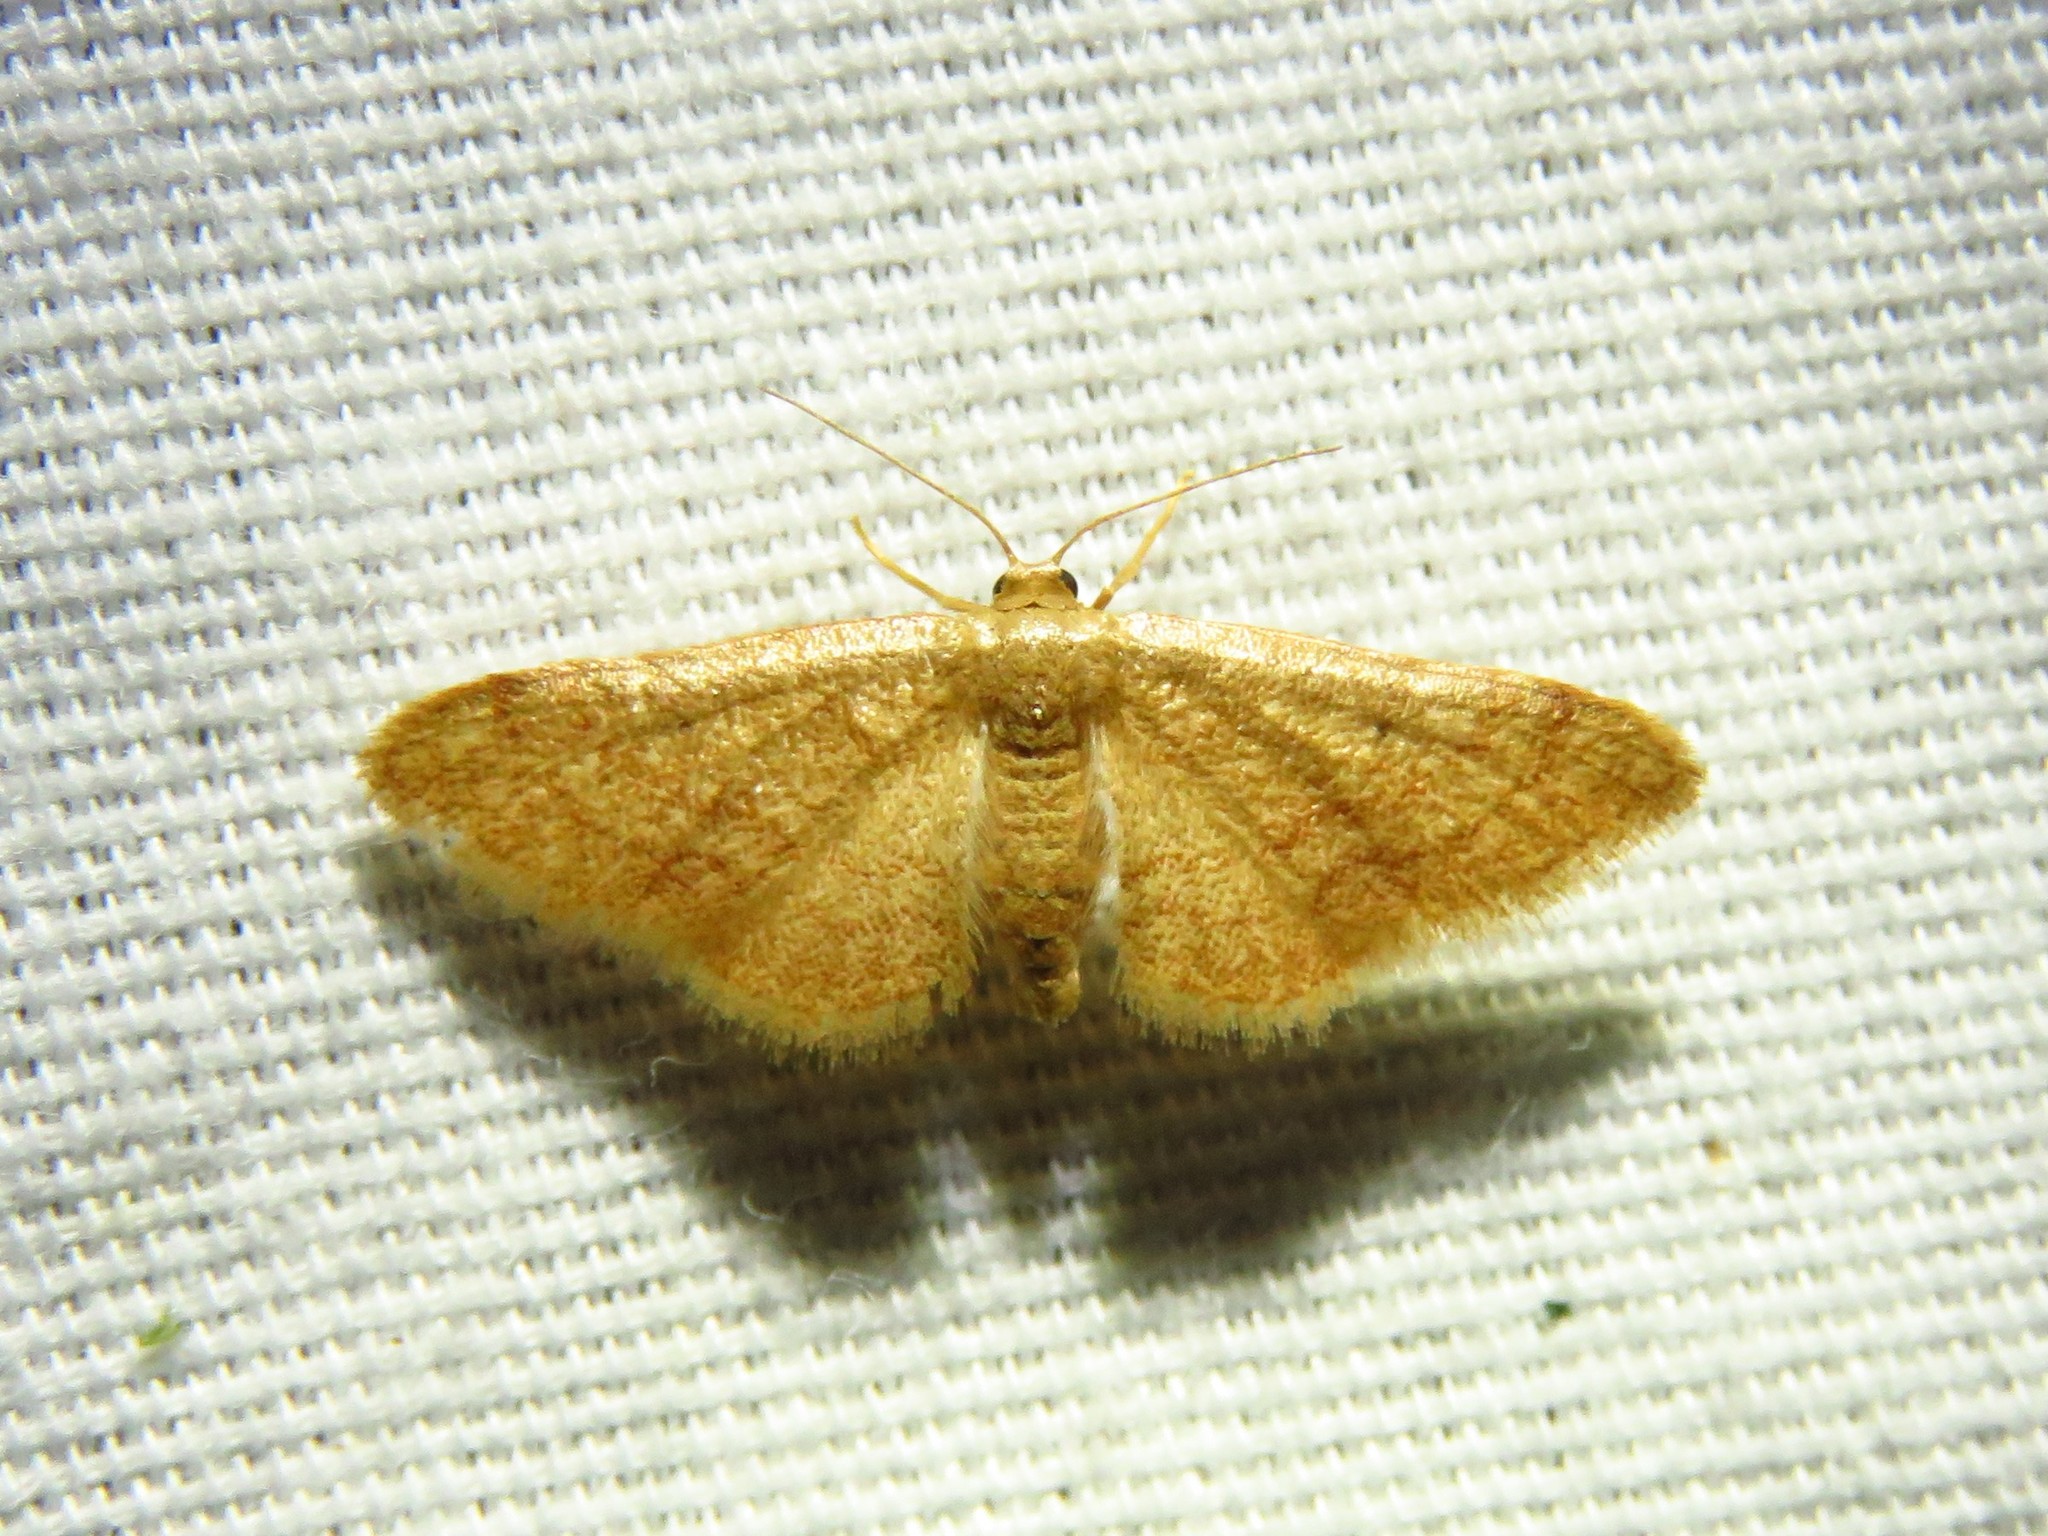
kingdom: Animalia
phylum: Arthropoda
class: Insecta
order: Lepidoptera
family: Geometridae
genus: Idaea
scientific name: Idaea demissaria
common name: Red-bordered wave
